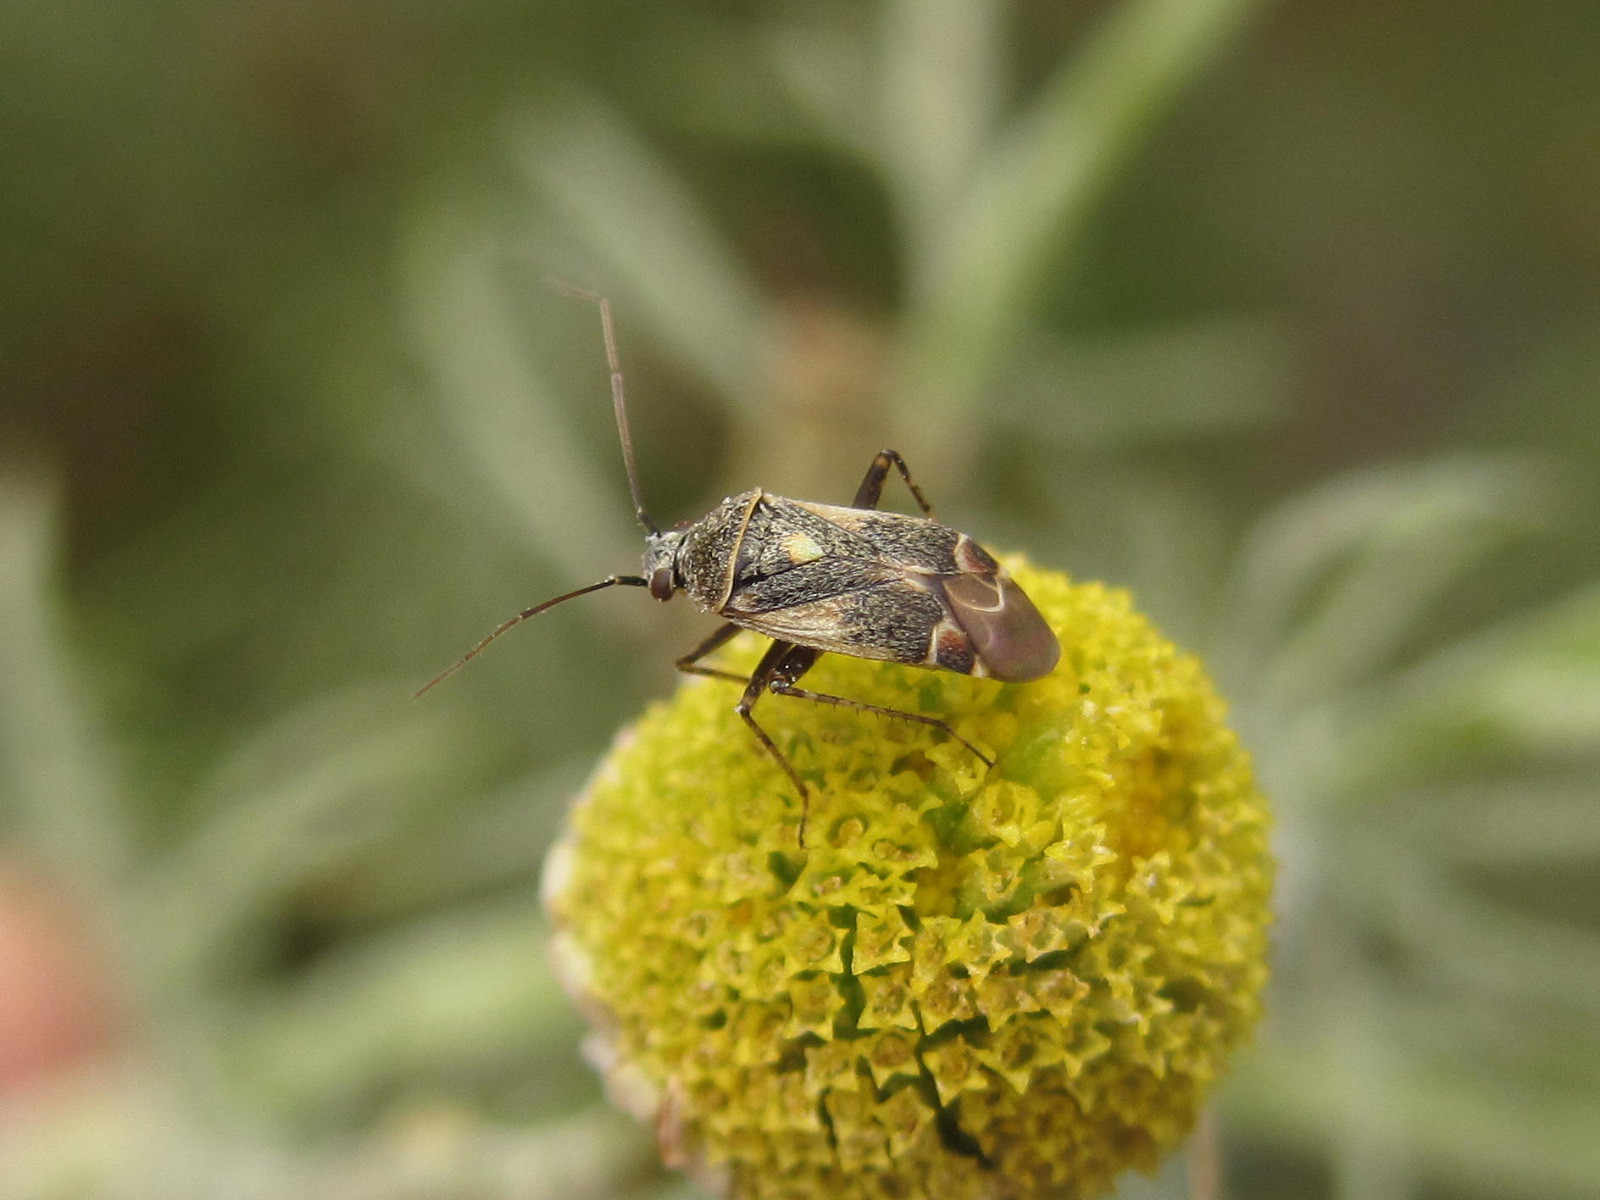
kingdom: Animalia
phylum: Arthropoda
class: Insecta
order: Hemiptera
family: Miridae
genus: Polymerus
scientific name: Polymerus cognatus
